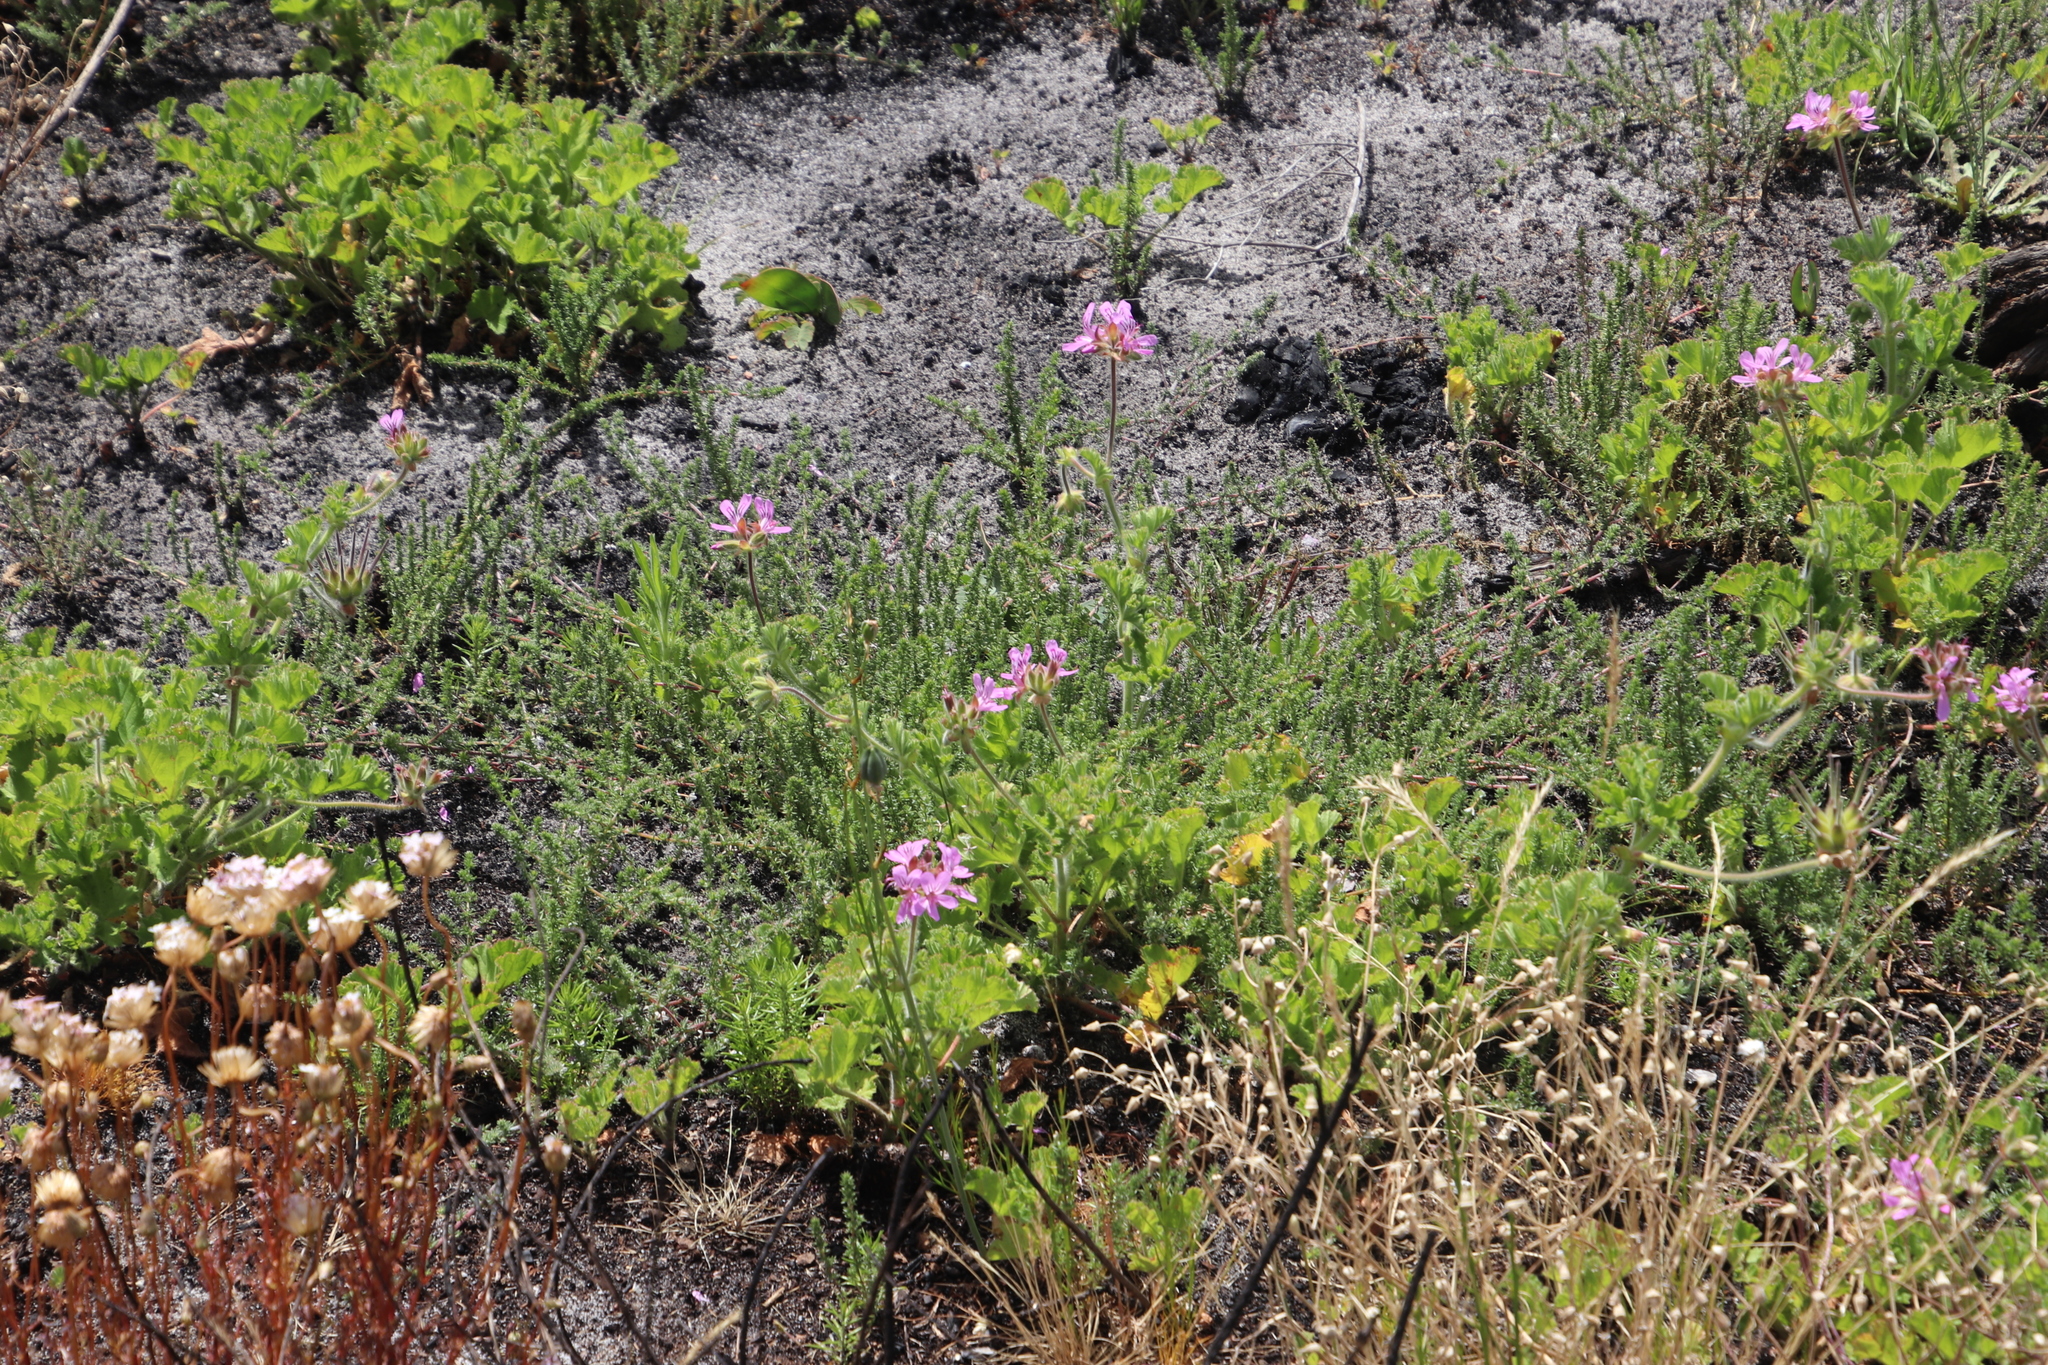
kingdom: Plantae
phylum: Tracheophyta
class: Magnoliopsida
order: Fabales
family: Fabaceae
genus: Aspalathus
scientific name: Aspalathus retroflexa
